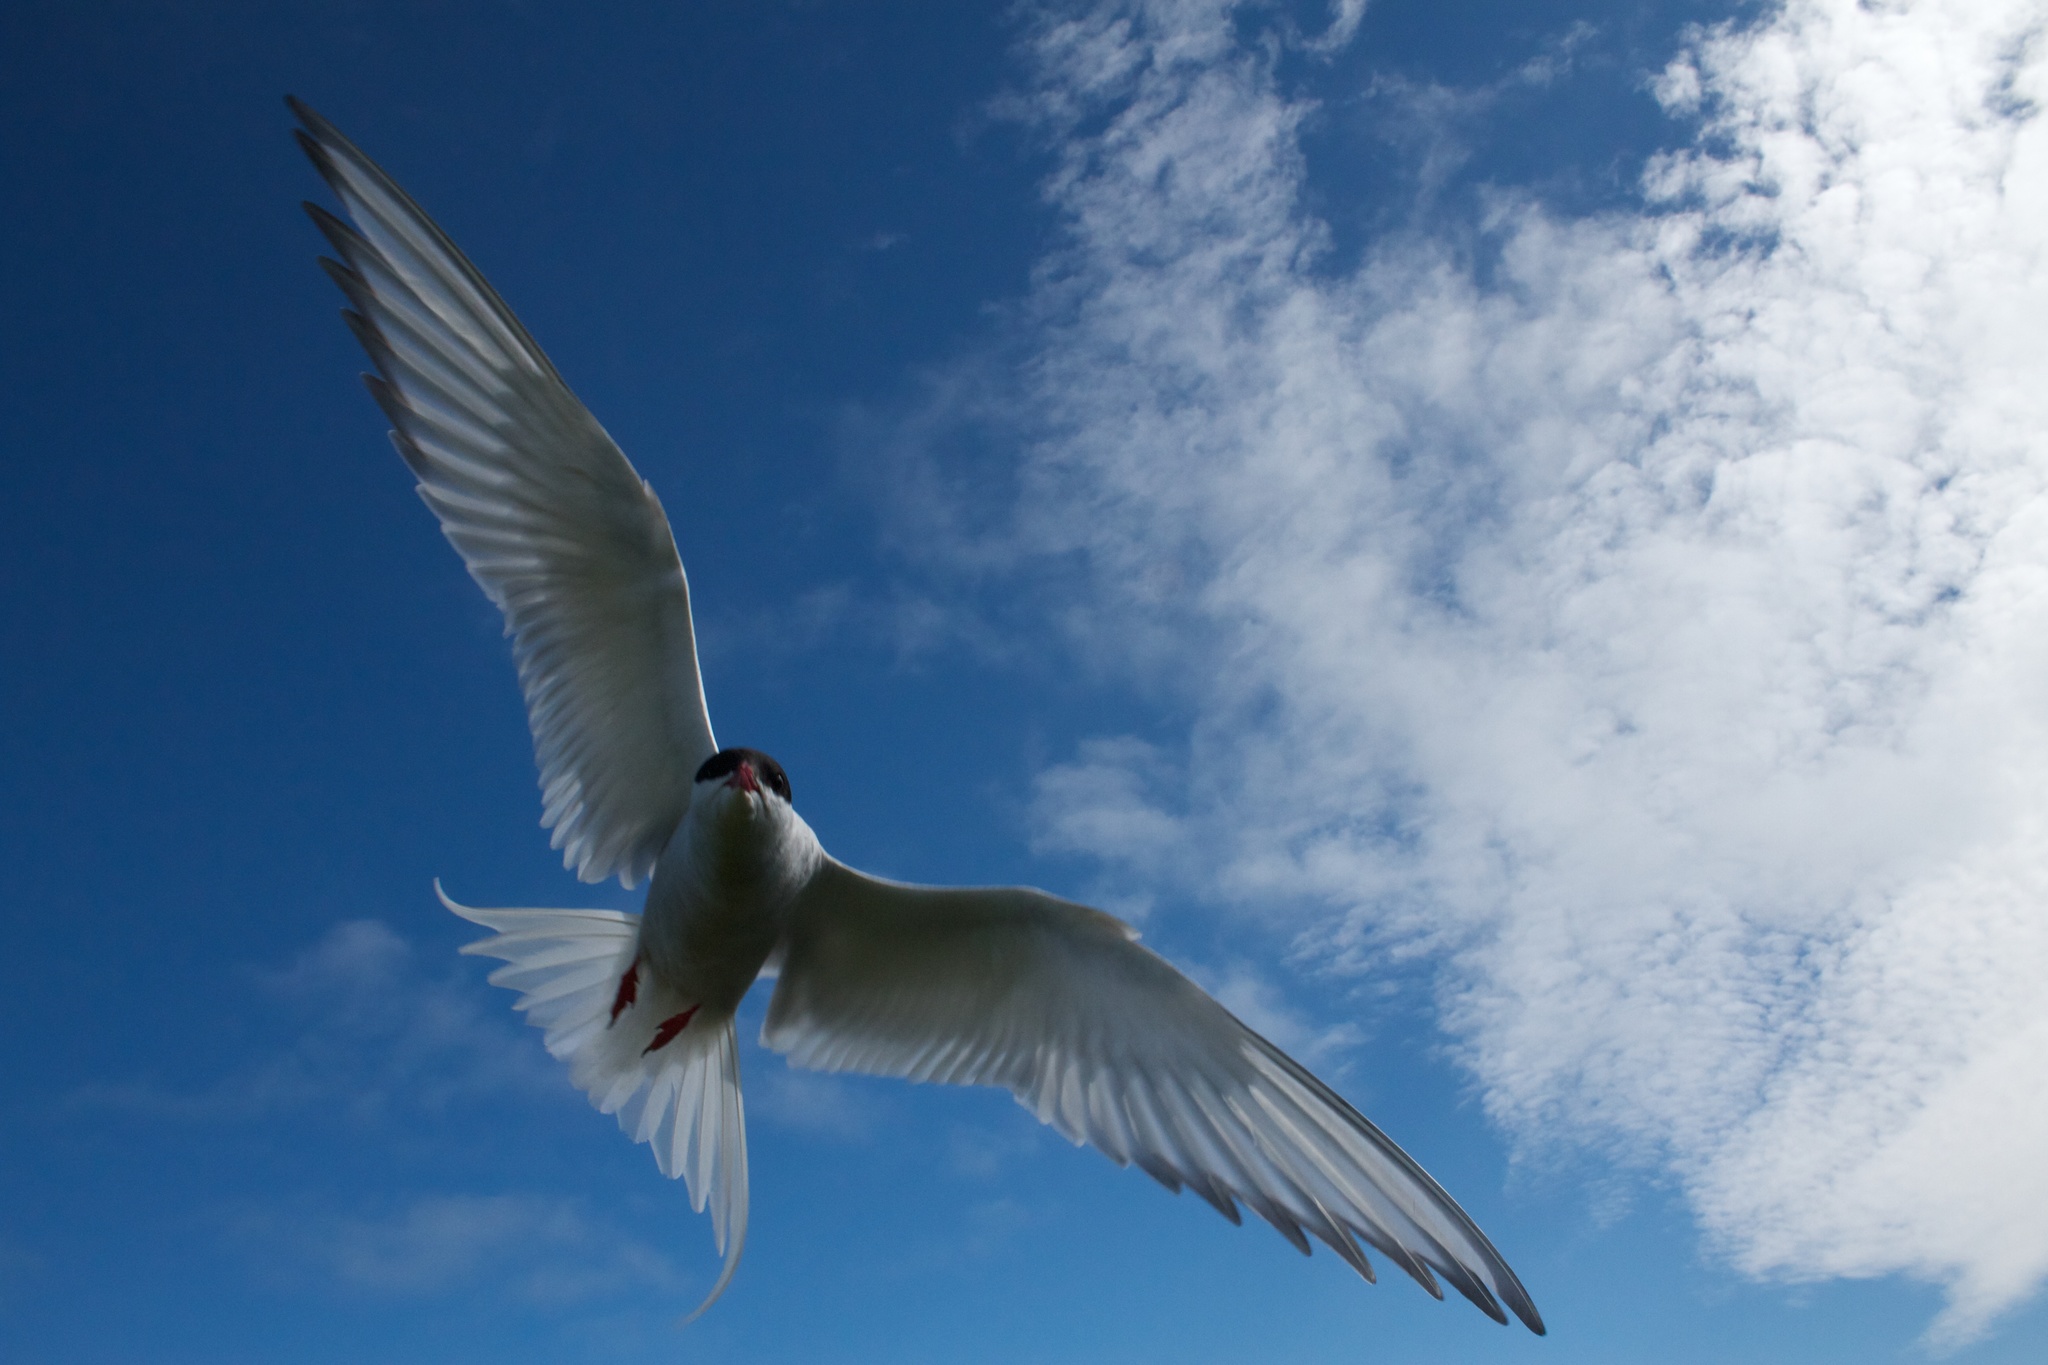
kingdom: Animalia
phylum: Chordata
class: Aves
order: Charadriiformes
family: Laridae
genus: Sterna
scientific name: Sterna paradisaea
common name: Arctic tern
